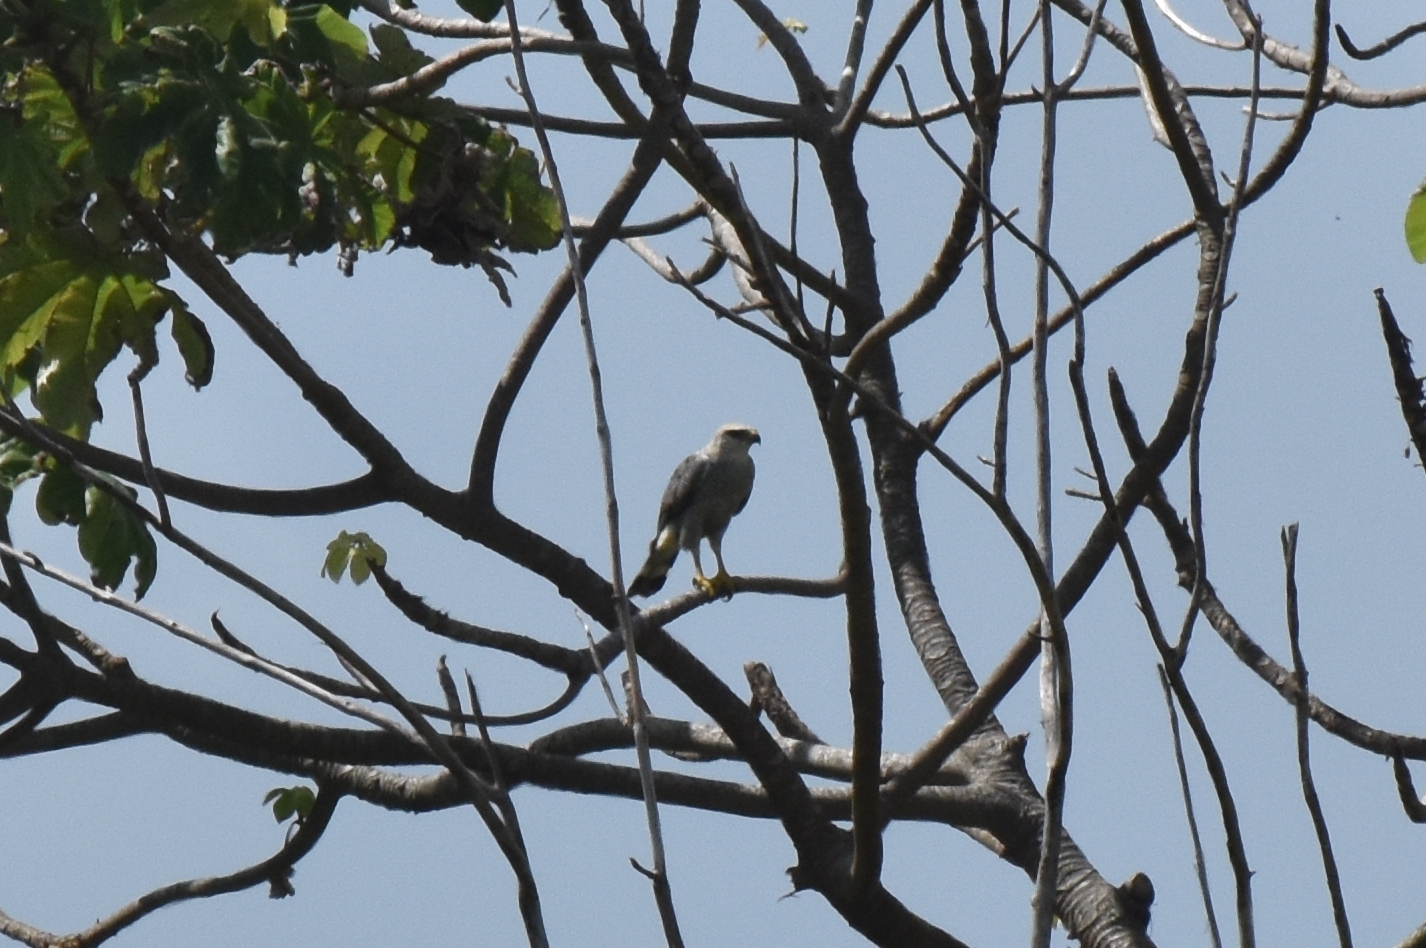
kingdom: Animalia
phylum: Chordata
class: Aves
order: Accipitriformes
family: Accipitridae
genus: Buteo
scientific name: Buteo nitidus
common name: Grey-lined hawk
